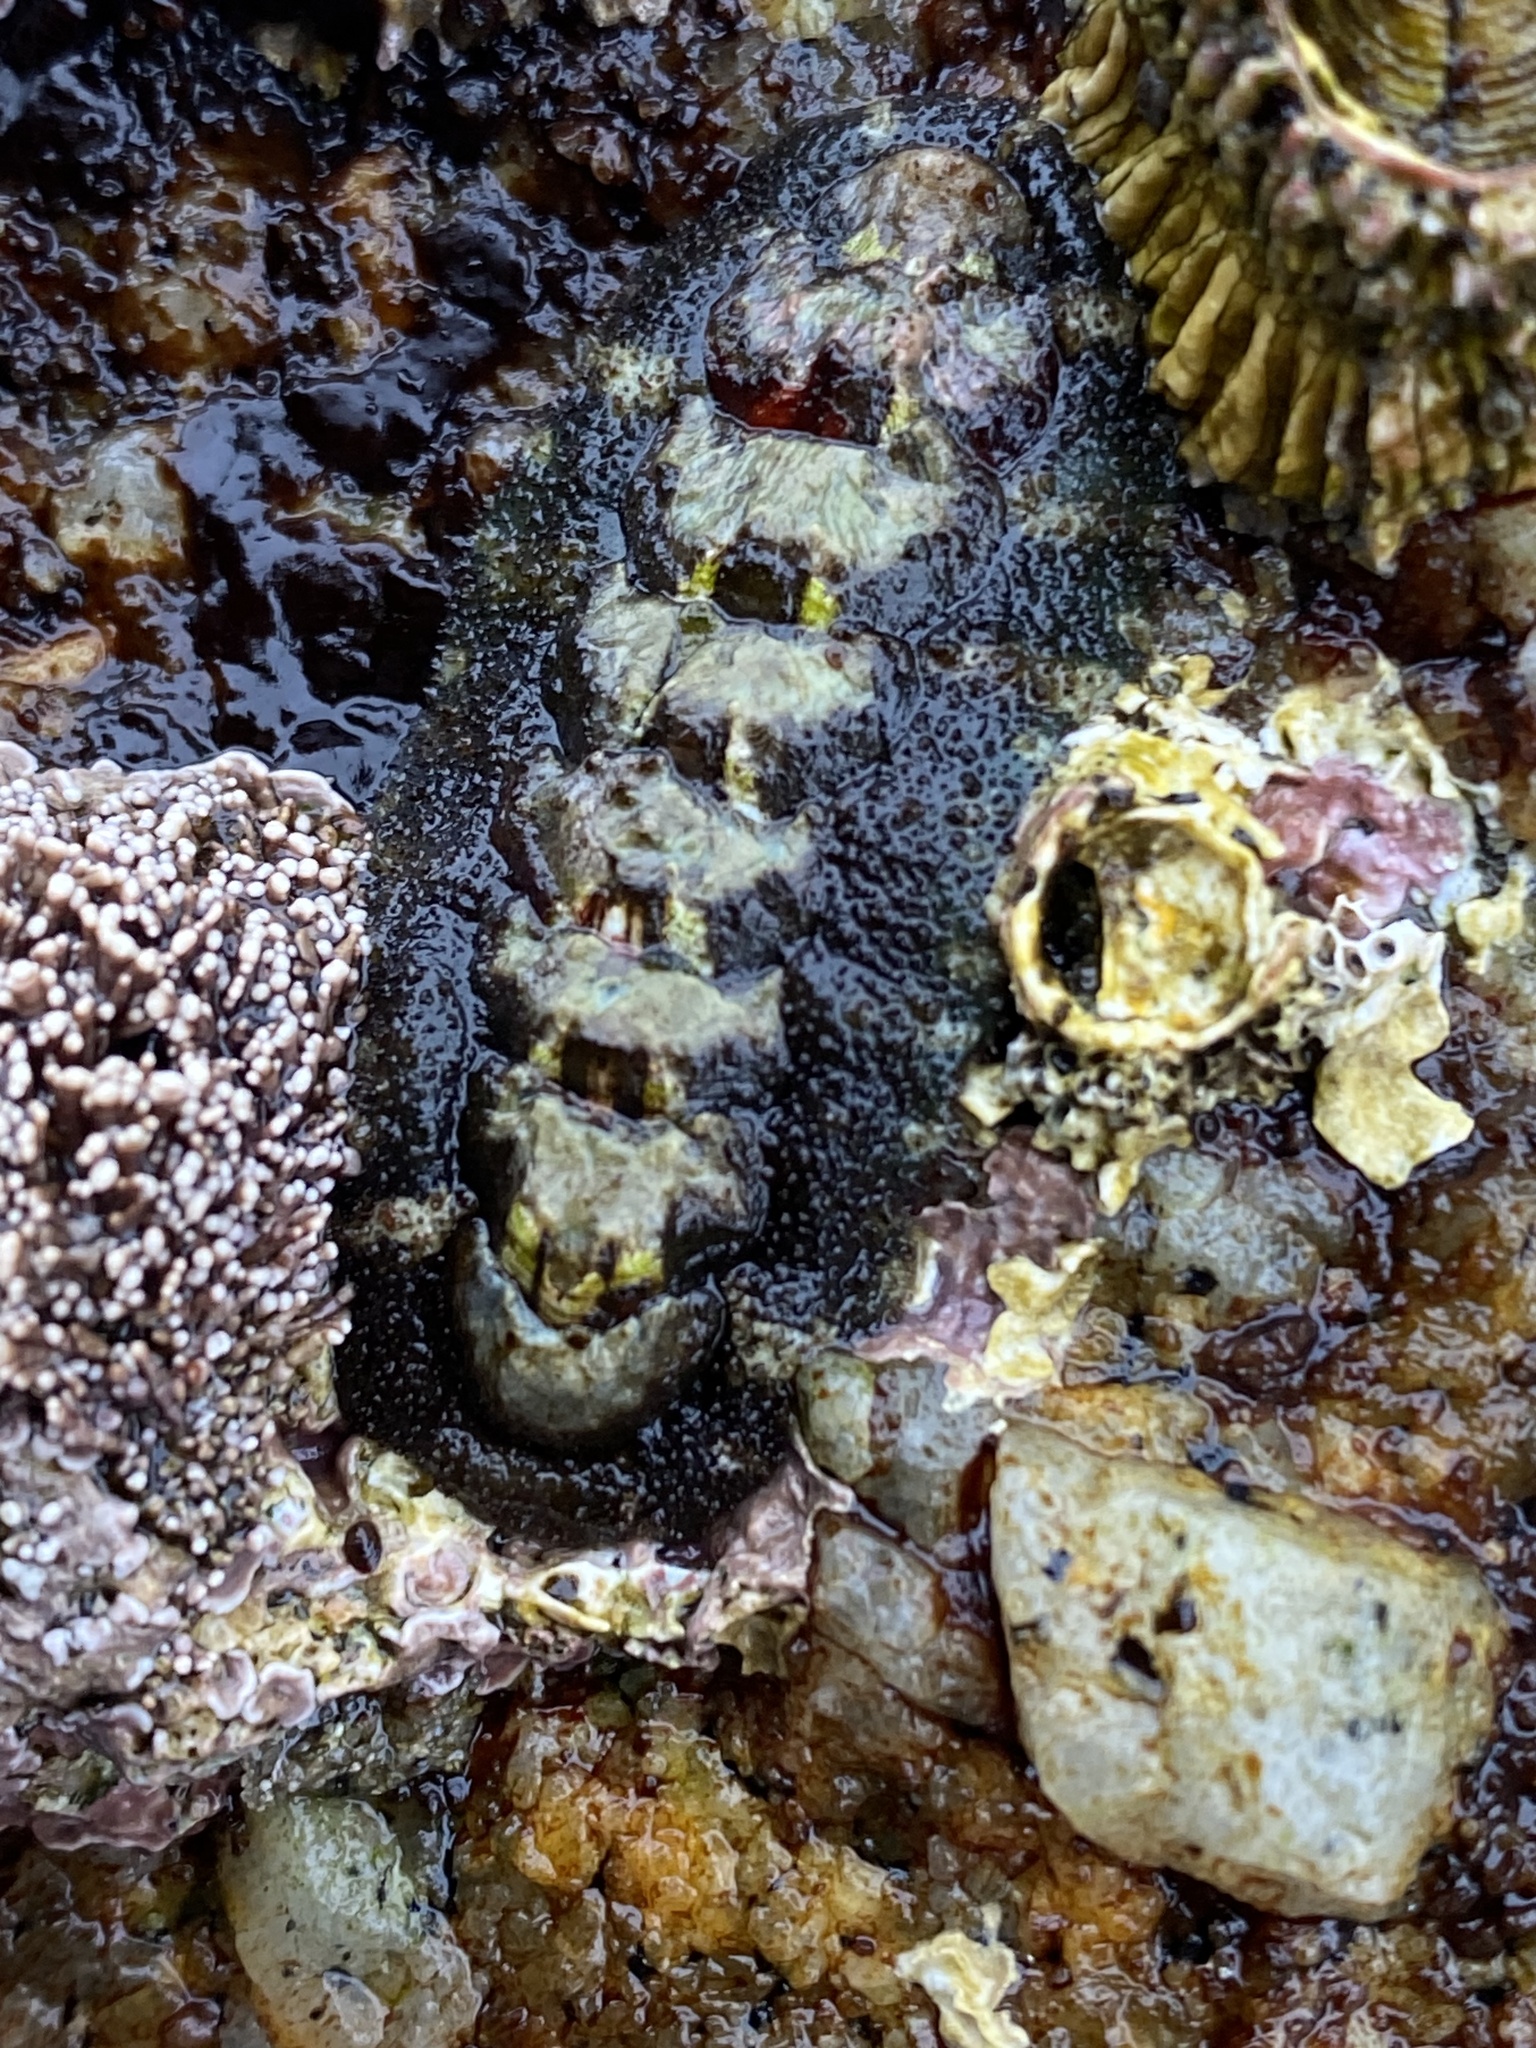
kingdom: Animalia
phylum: Mollusca
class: Polyplacophora
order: Chitonida
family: Tonicellidae
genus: Nuttallina
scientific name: Nuttallina californica
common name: California nuttall chiton
